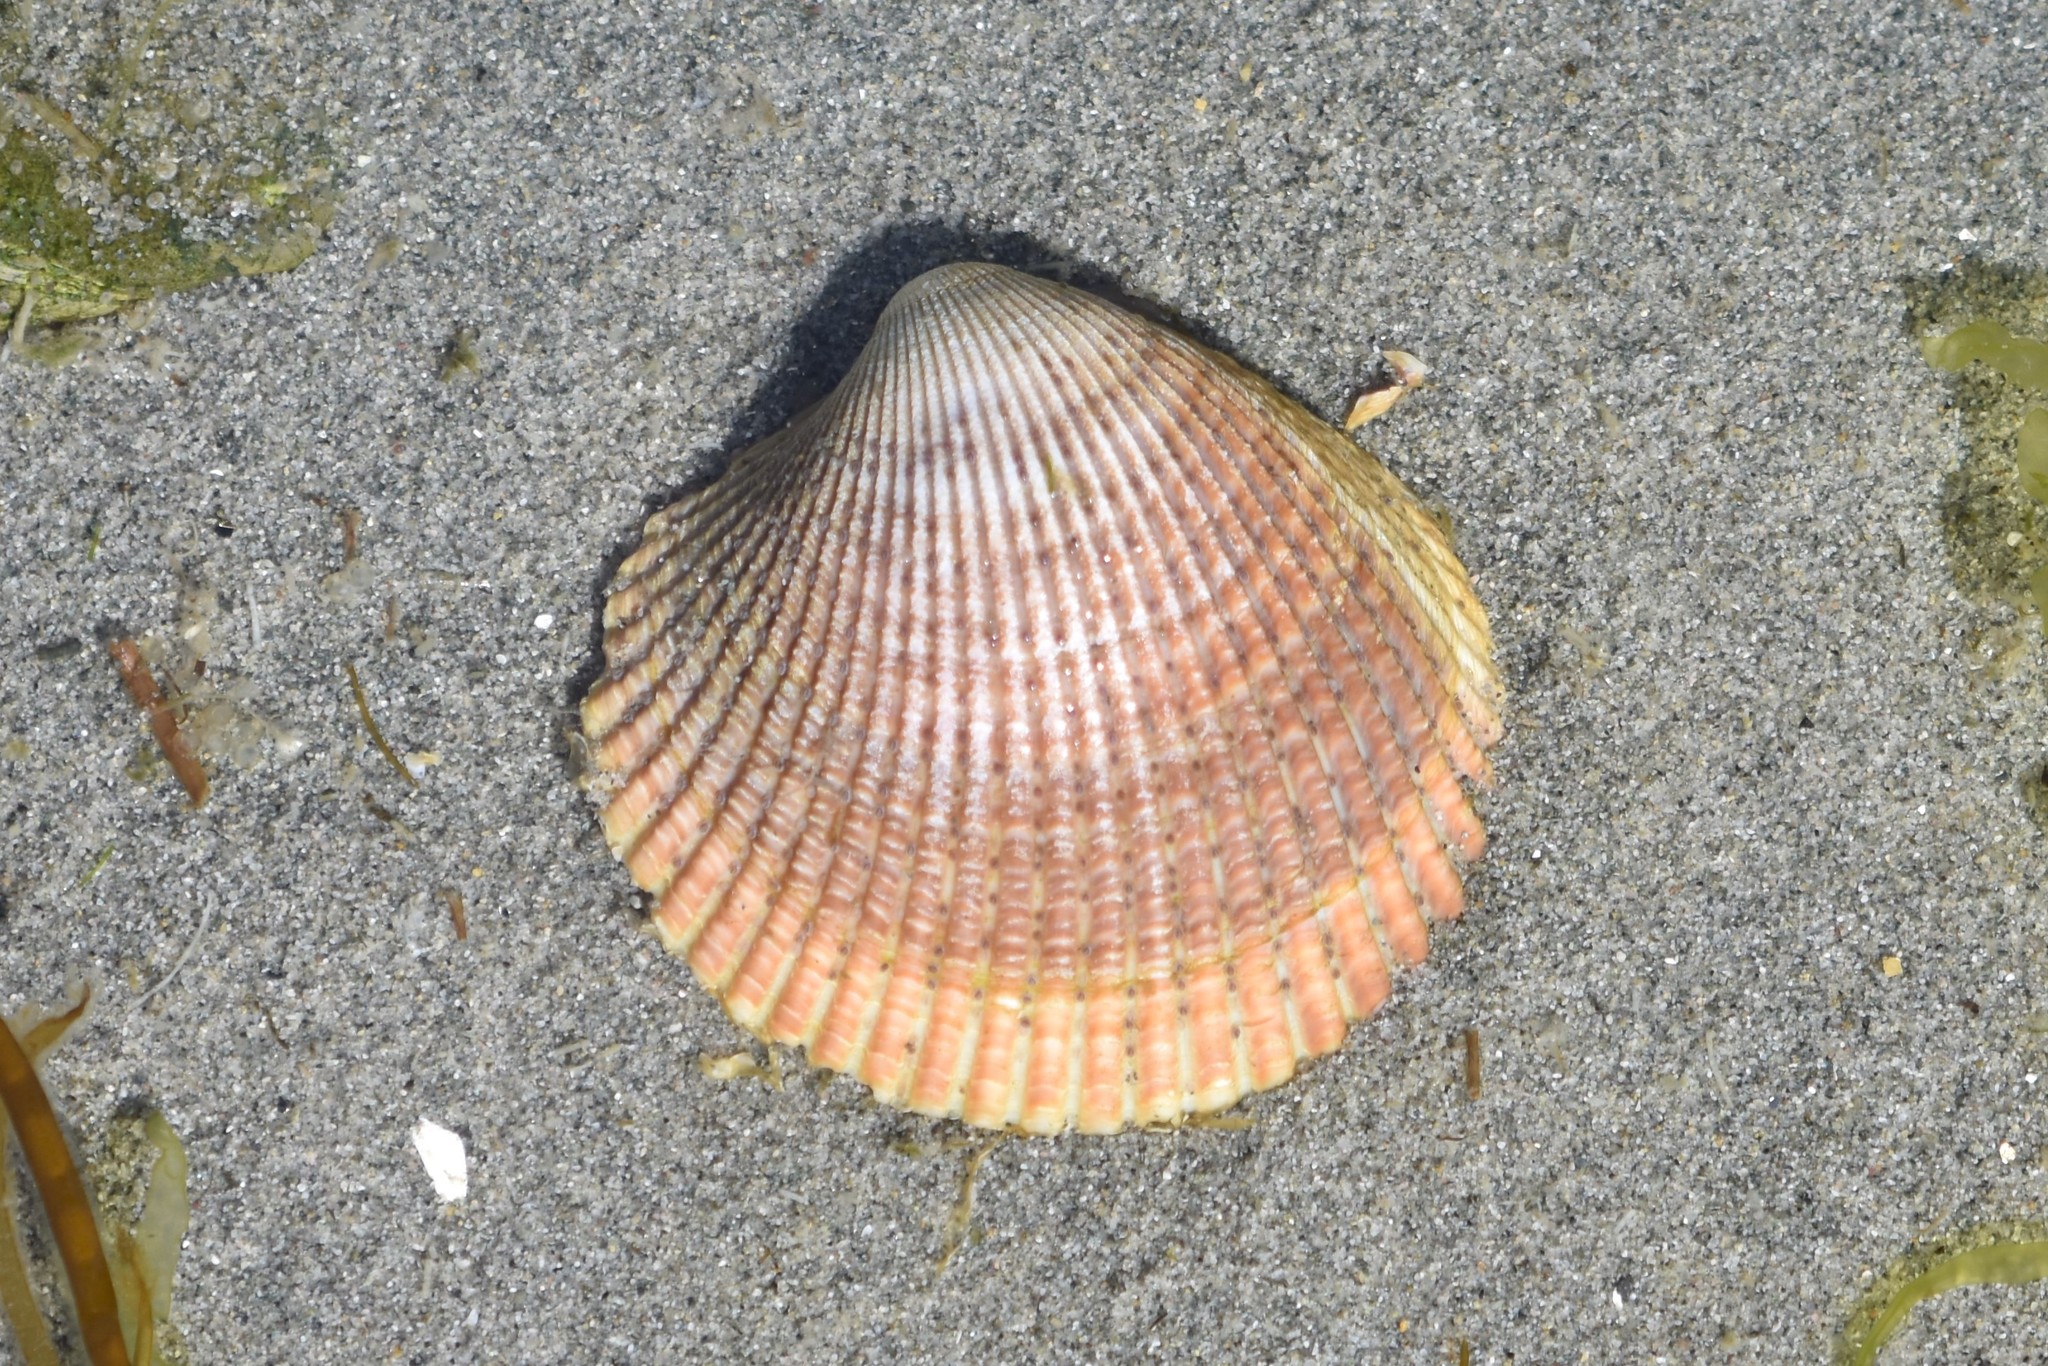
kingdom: Animalia
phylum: Mollusca
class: Bivalvia
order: Cardiida
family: Cardiidae
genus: Clinocardium
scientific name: Clinocardium nuttallii
